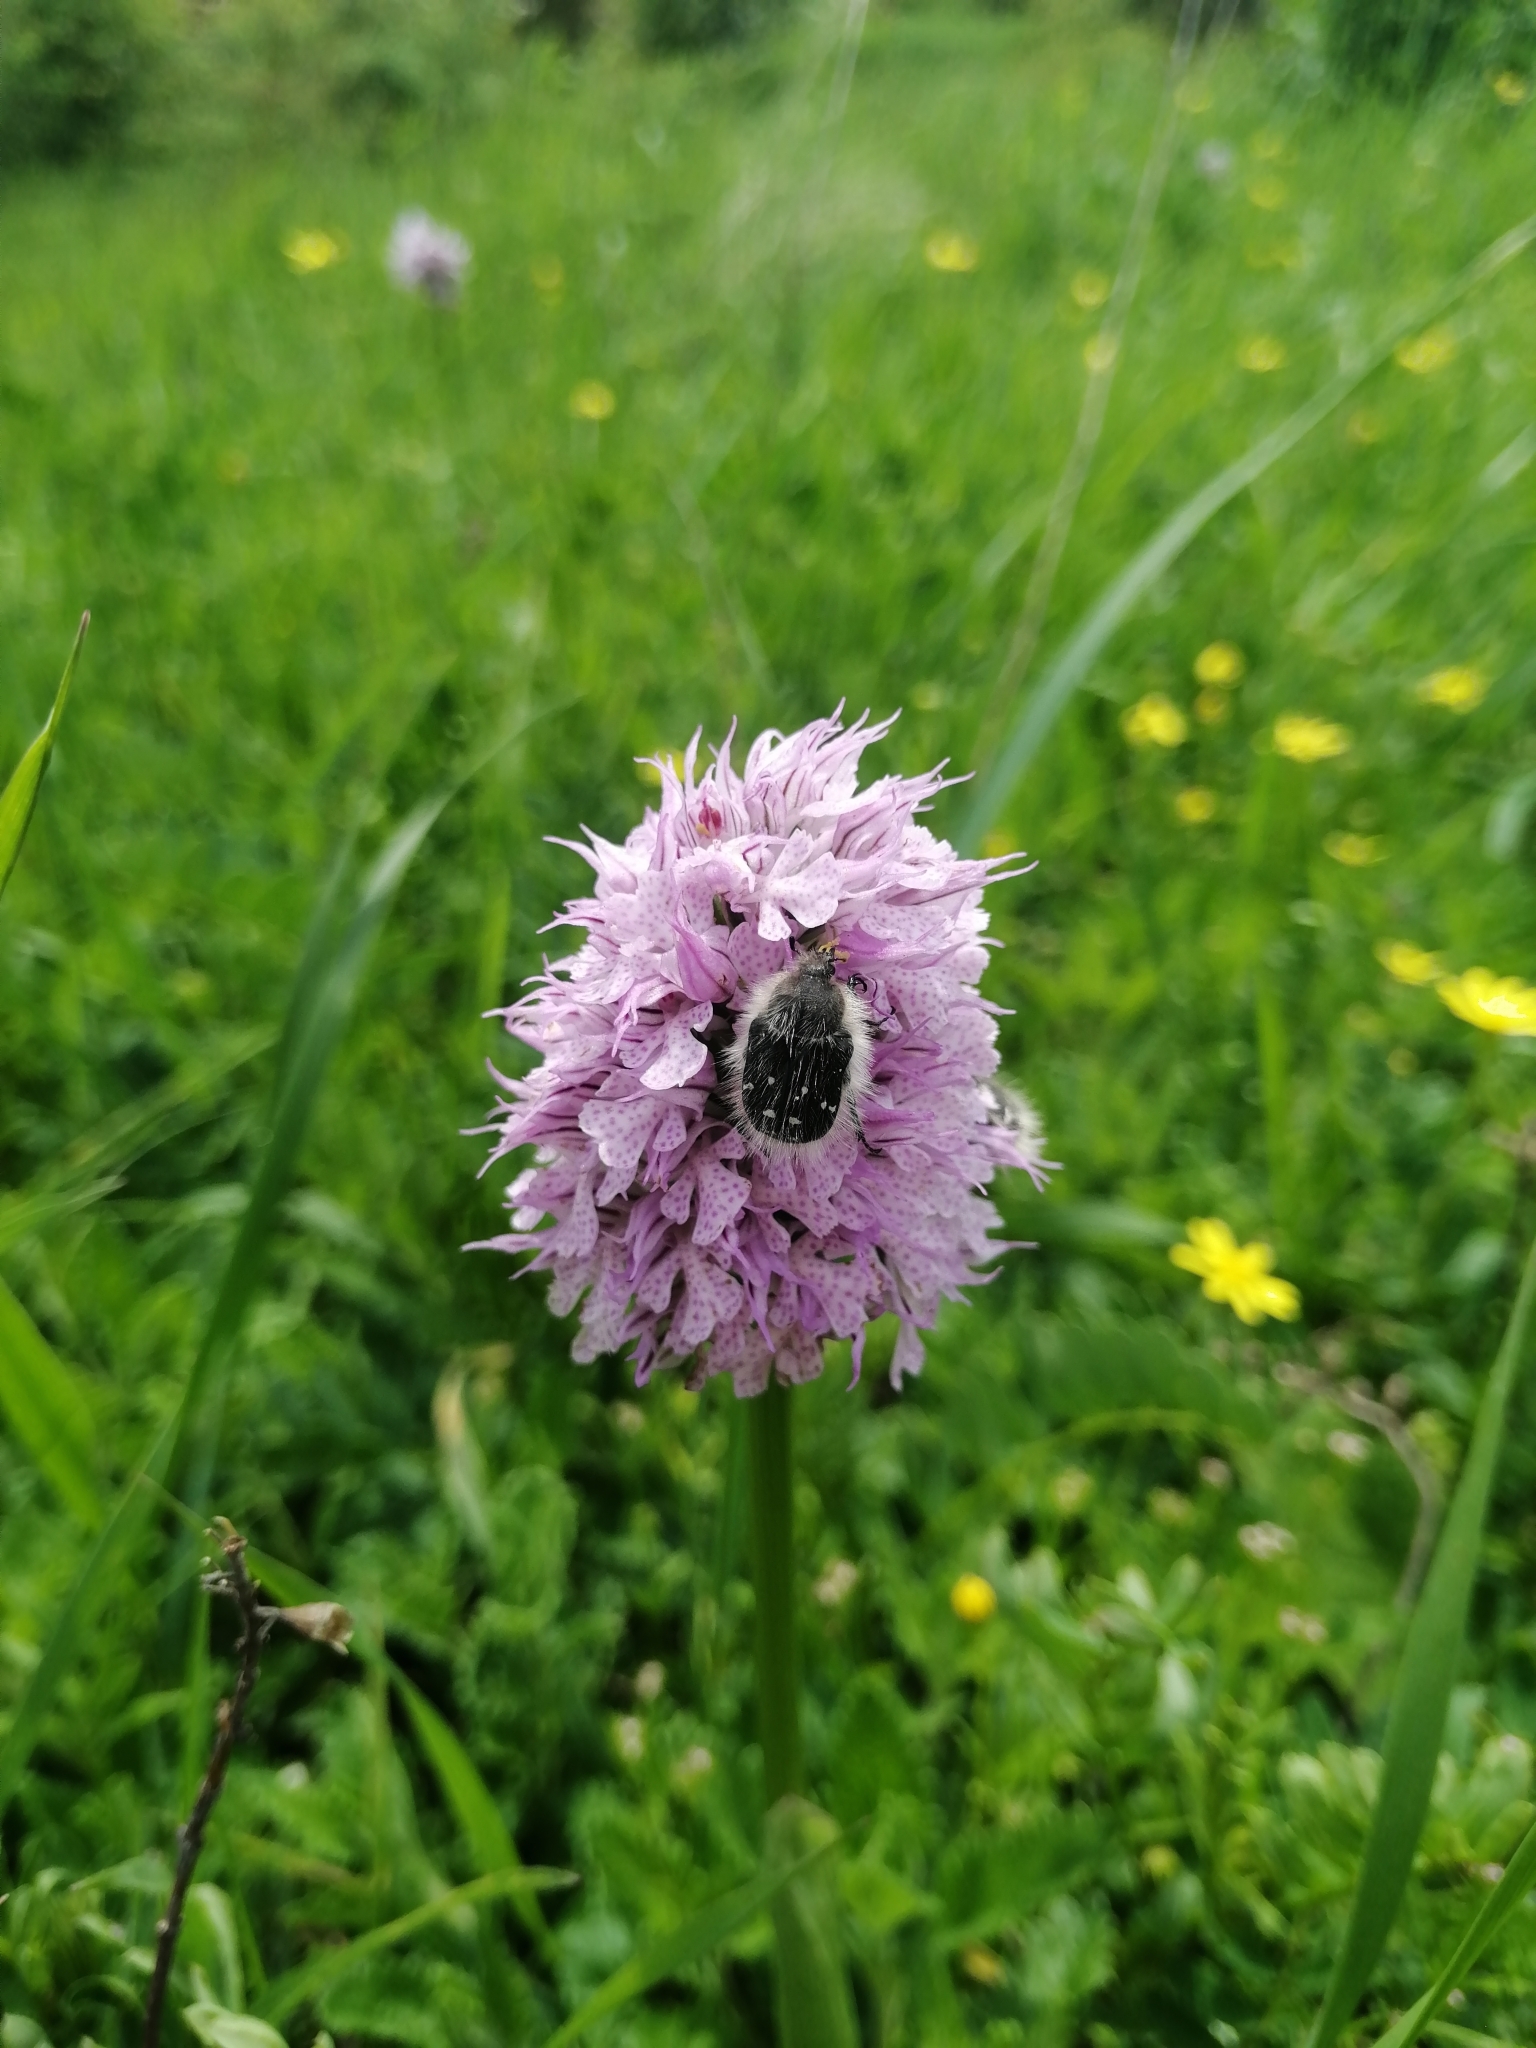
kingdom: Plantae
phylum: Tracheophyta
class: Liliopsida
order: Asparagales
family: Orchidaceae
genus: Neotinea
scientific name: Neotinea tridentata
